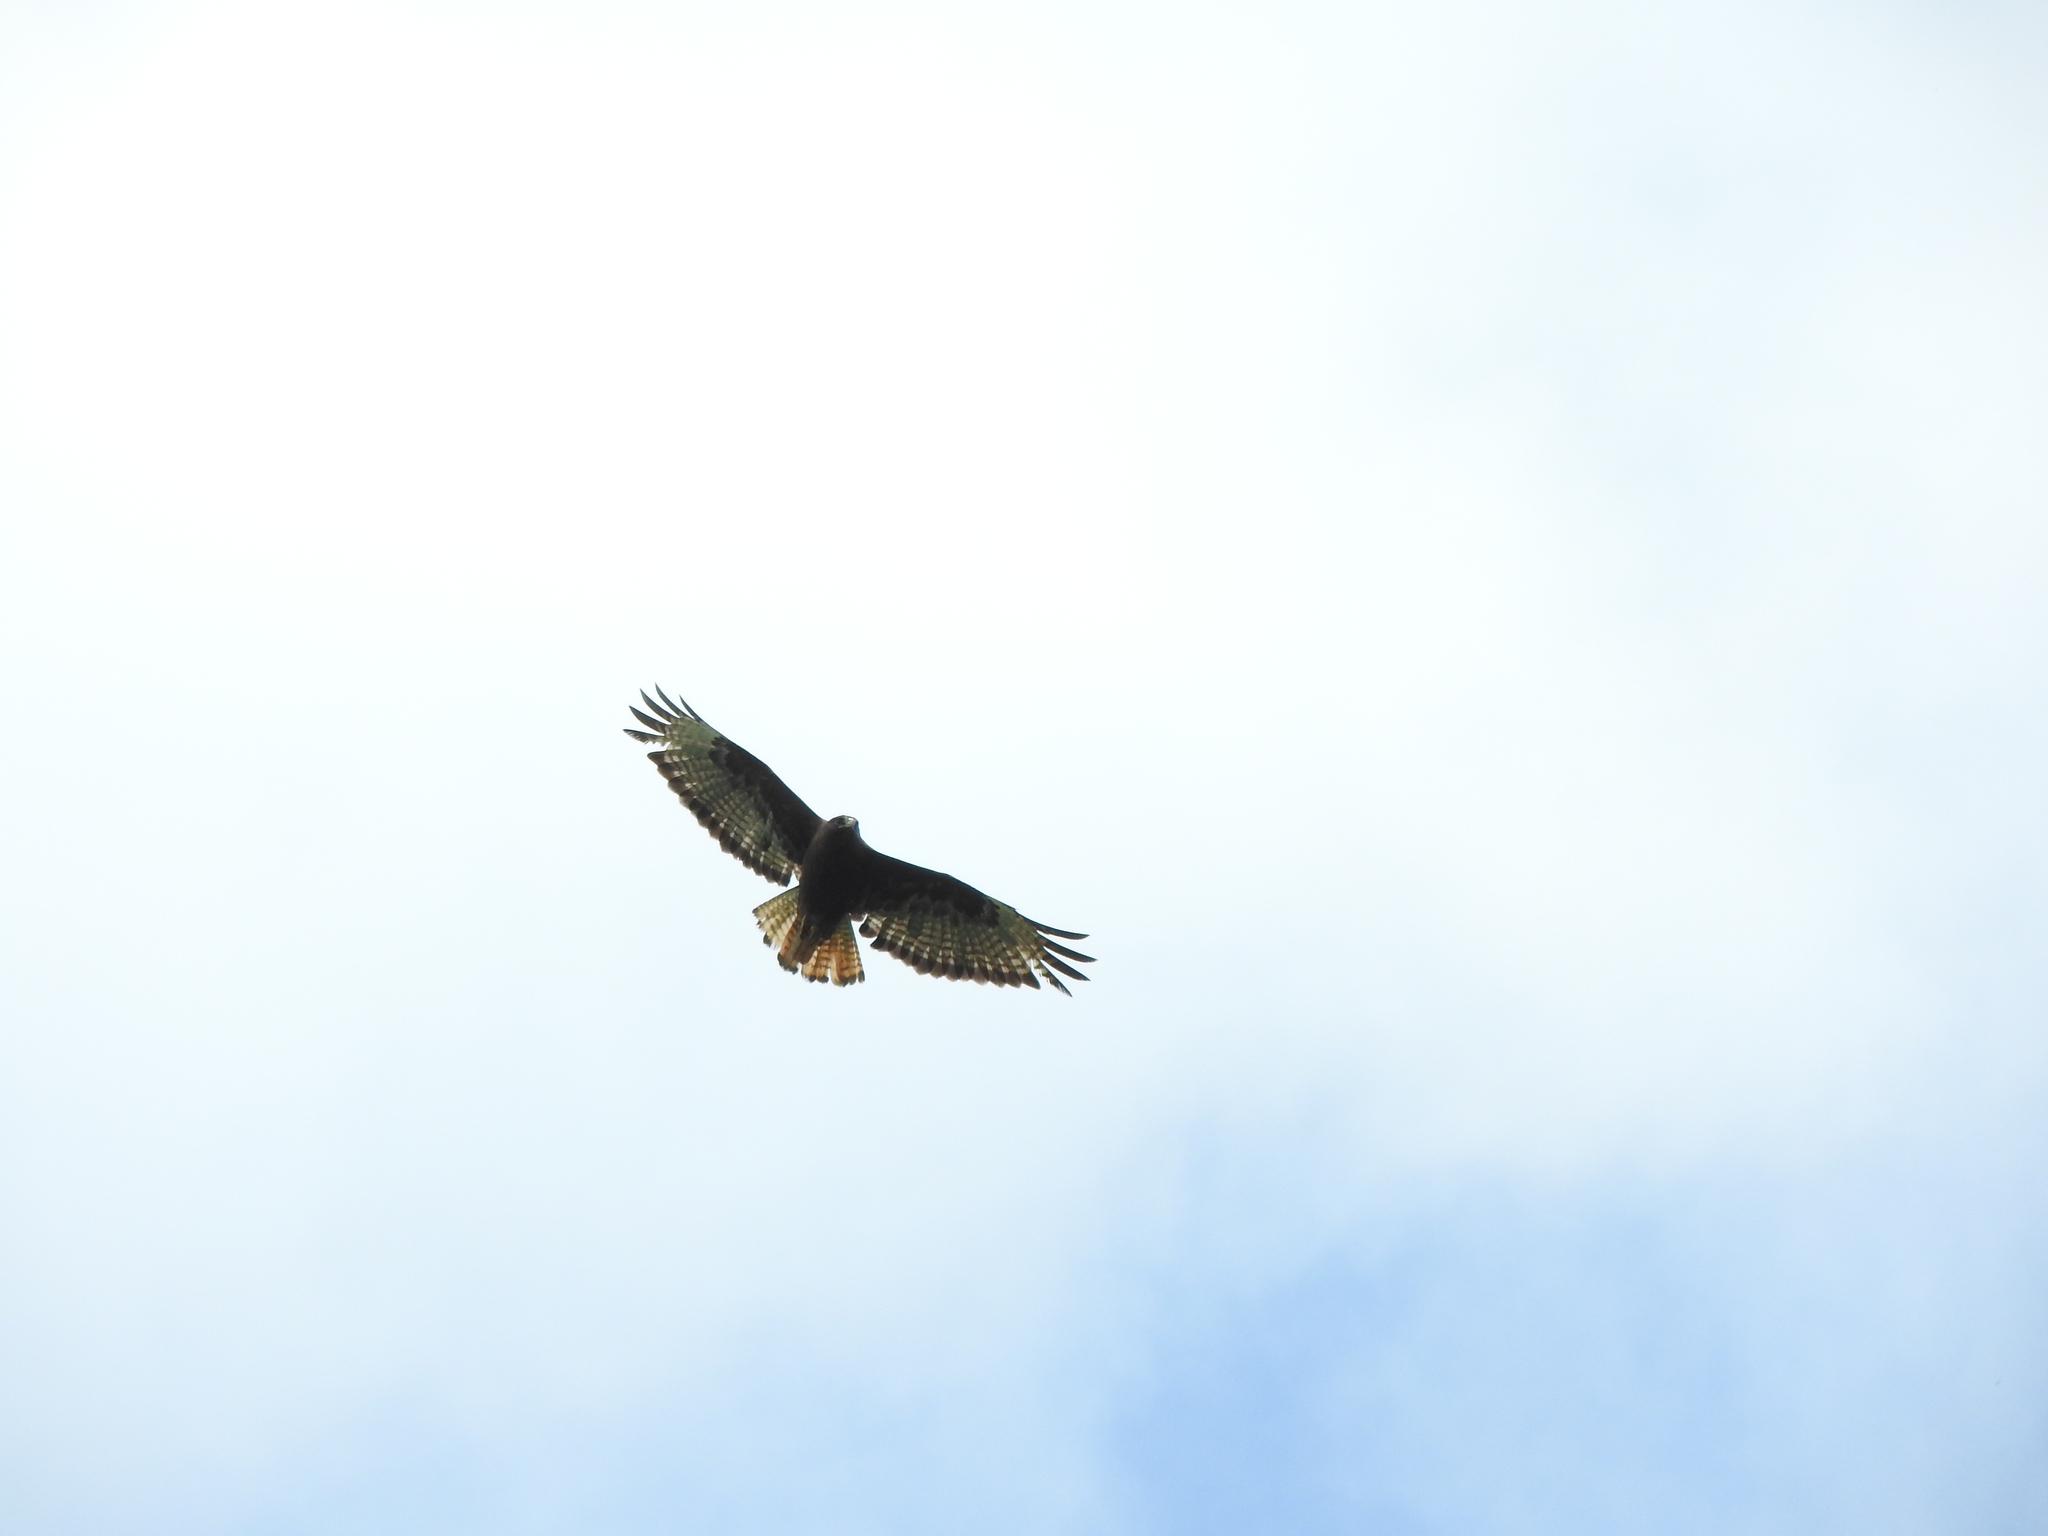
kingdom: Animalia
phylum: Chordata
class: Aves
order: Accipitriformes
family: Accipitridae
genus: Buteo
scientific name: Buteo jamaicensis
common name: Red-tailed hawk
